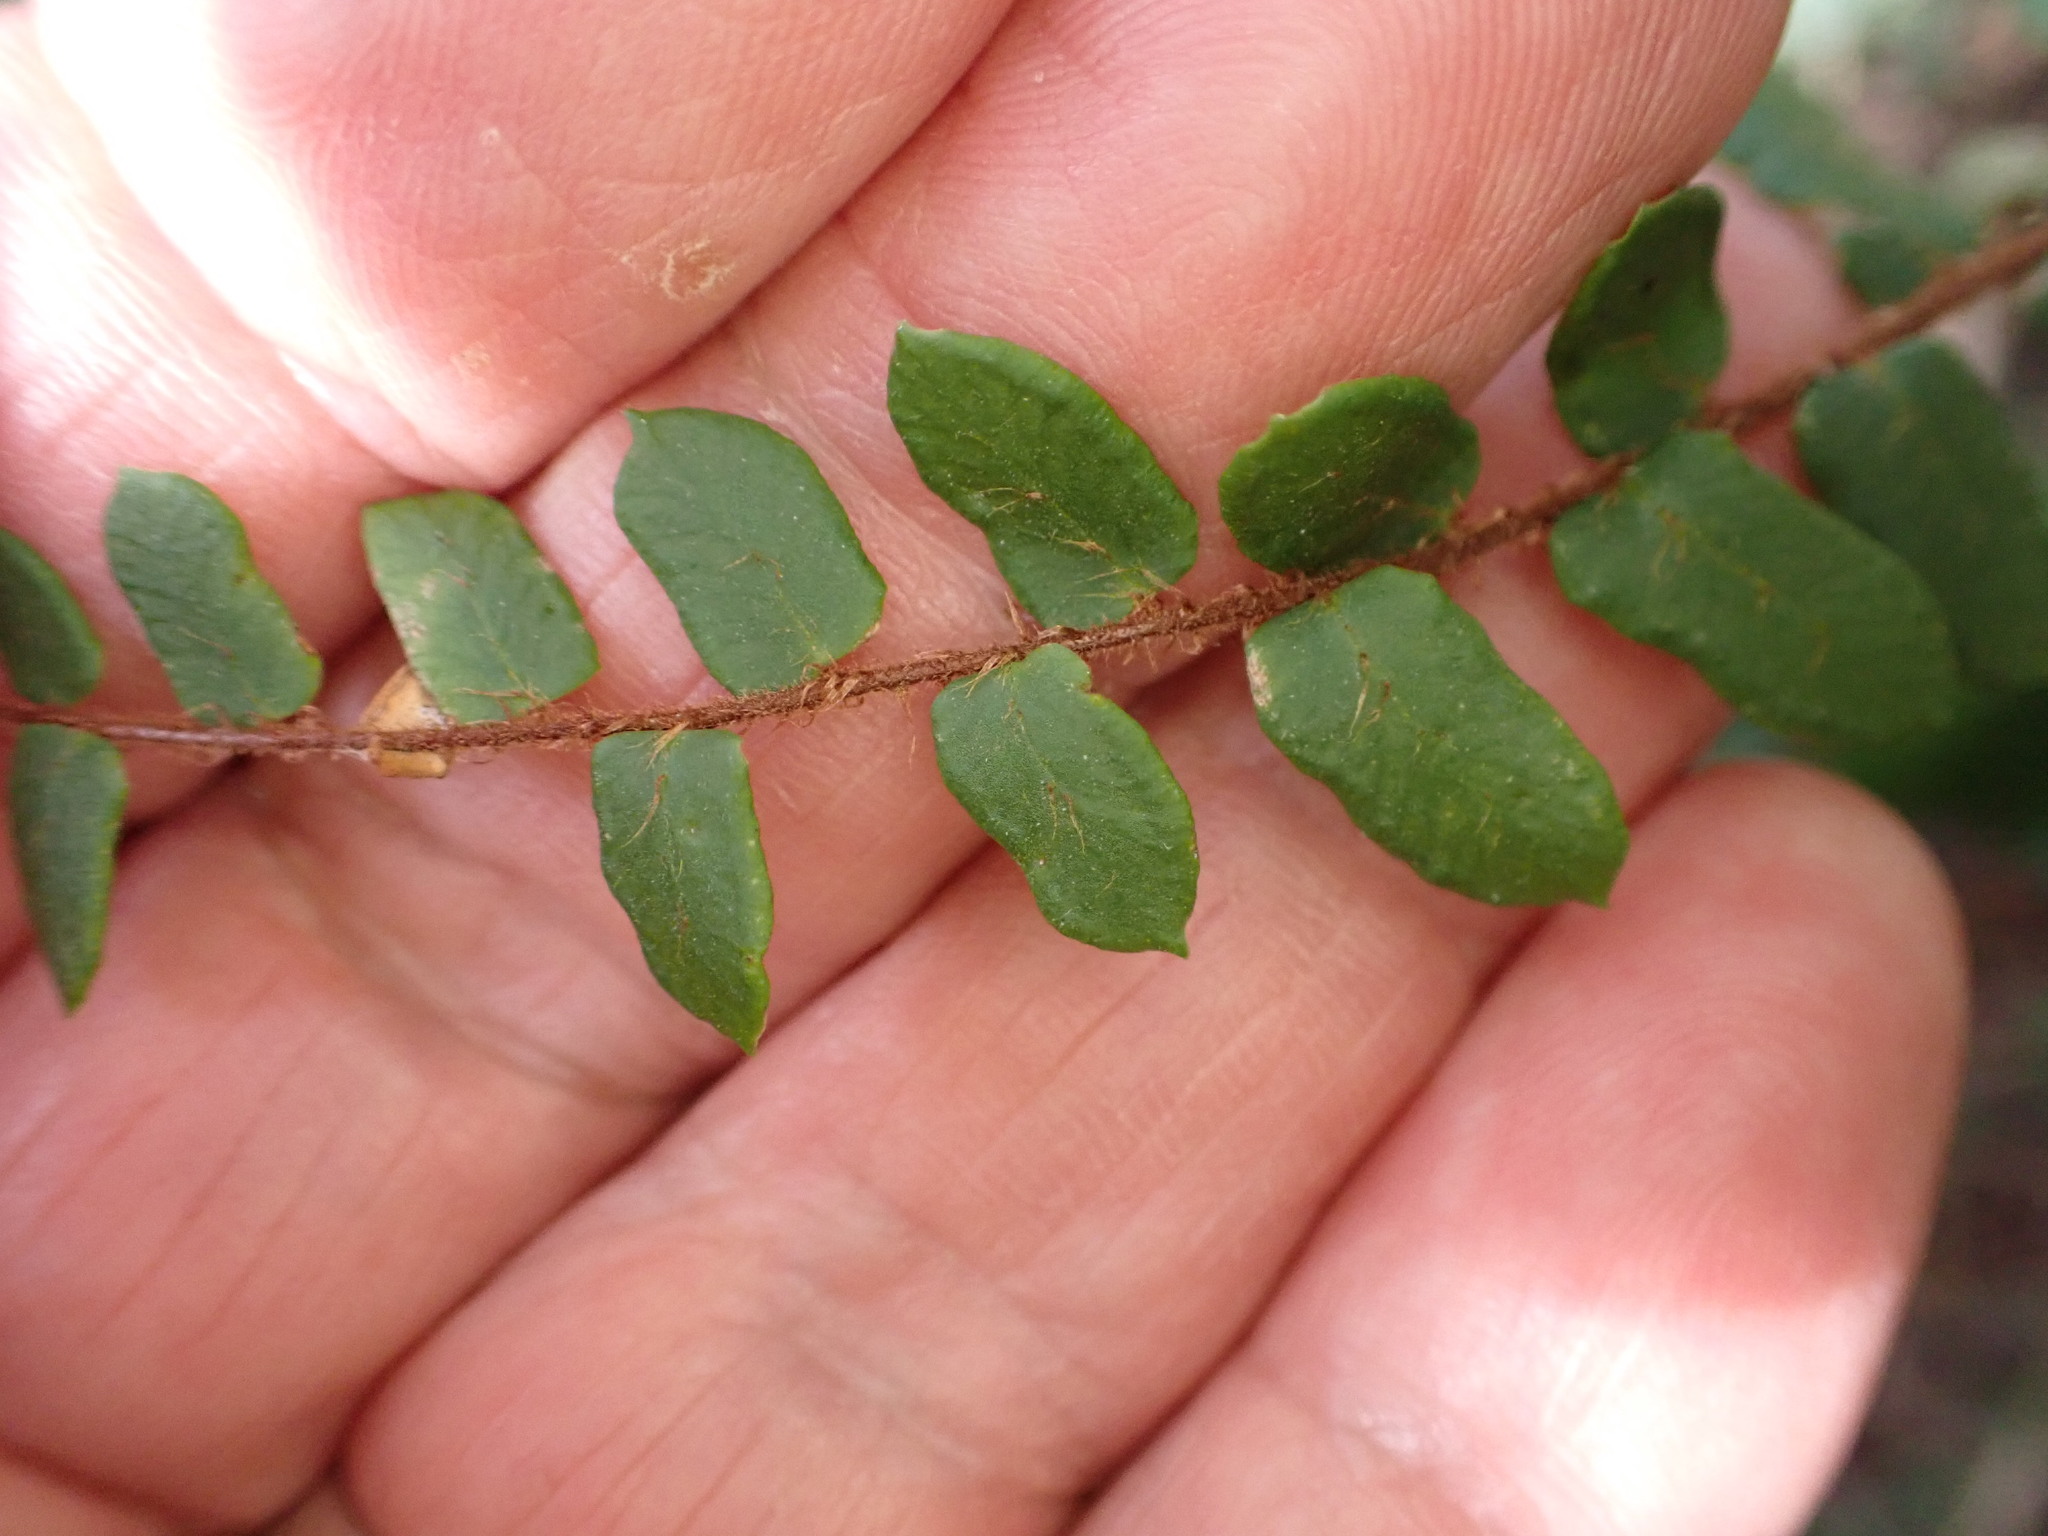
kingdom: Plantae
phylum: Tracheophyta
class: Polypodiopsida
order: Polypodiales
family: Pteridaceae
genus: Pellaea
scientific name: Pellaea rotundifolia
